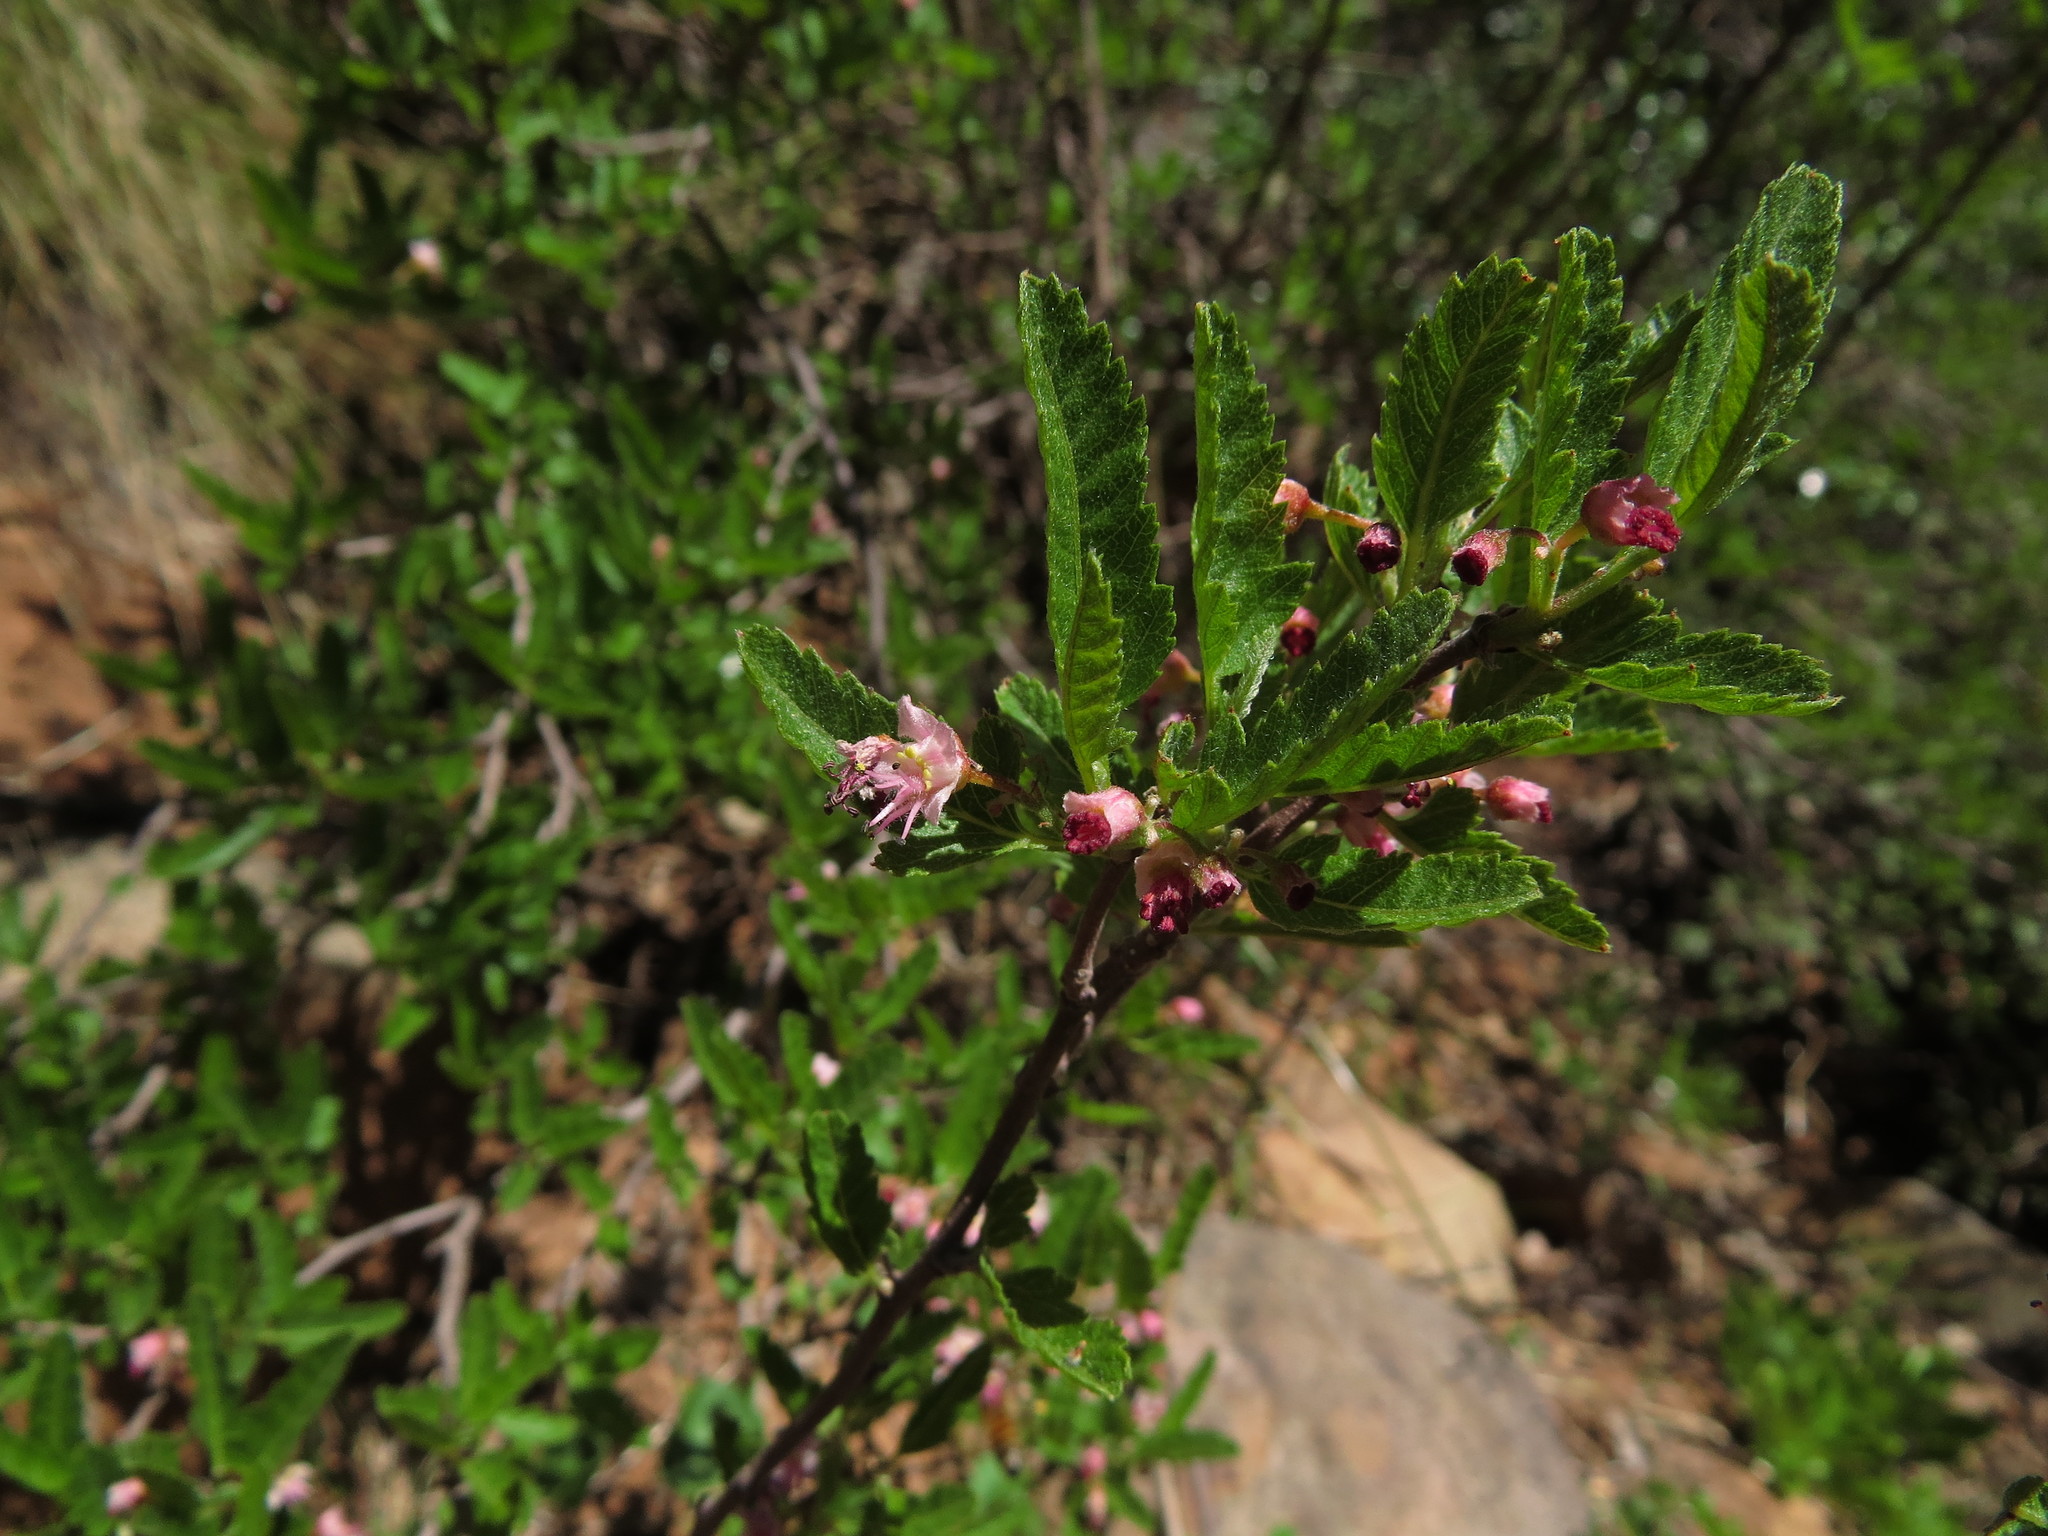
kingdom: Plantae
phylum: Tracheophyta
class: Magnoliopsida
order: Sapindales
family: Sapindaceae
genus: Bridgesia
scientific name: Bridgesia incisifolia
